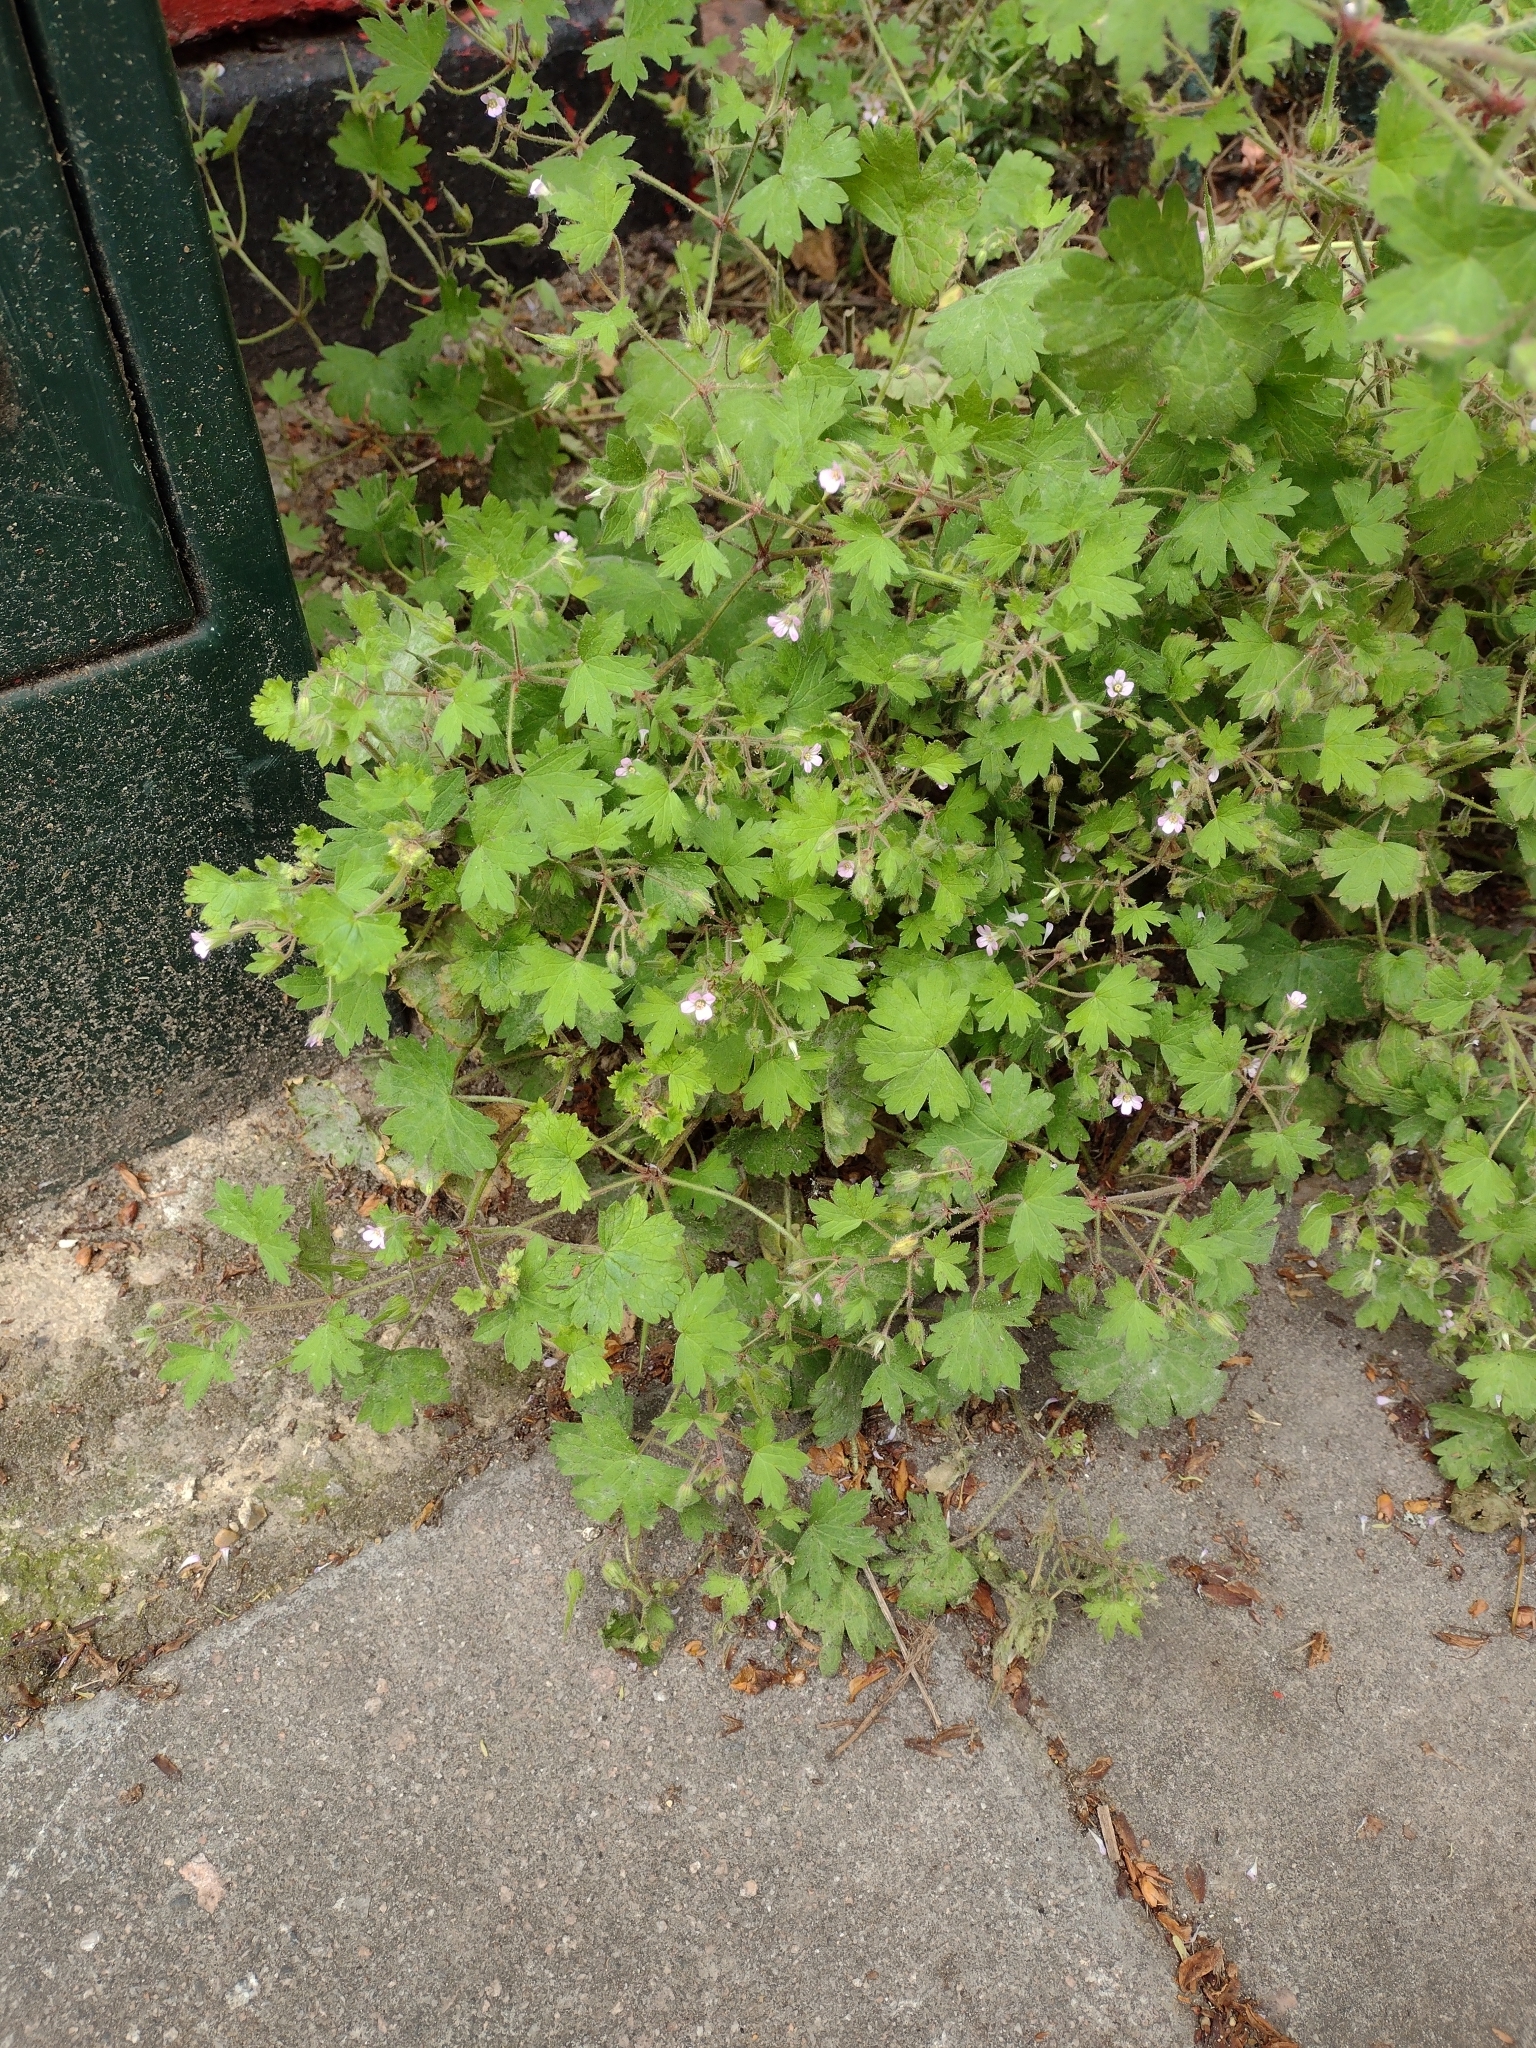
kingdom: Plantae
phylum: Tracheophyta
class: Magnoliopsida
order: Geraniales
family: Geraniaceae
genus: Geranium
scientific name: Geranium rotundifolium
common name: Round-leaved crane's-bill
